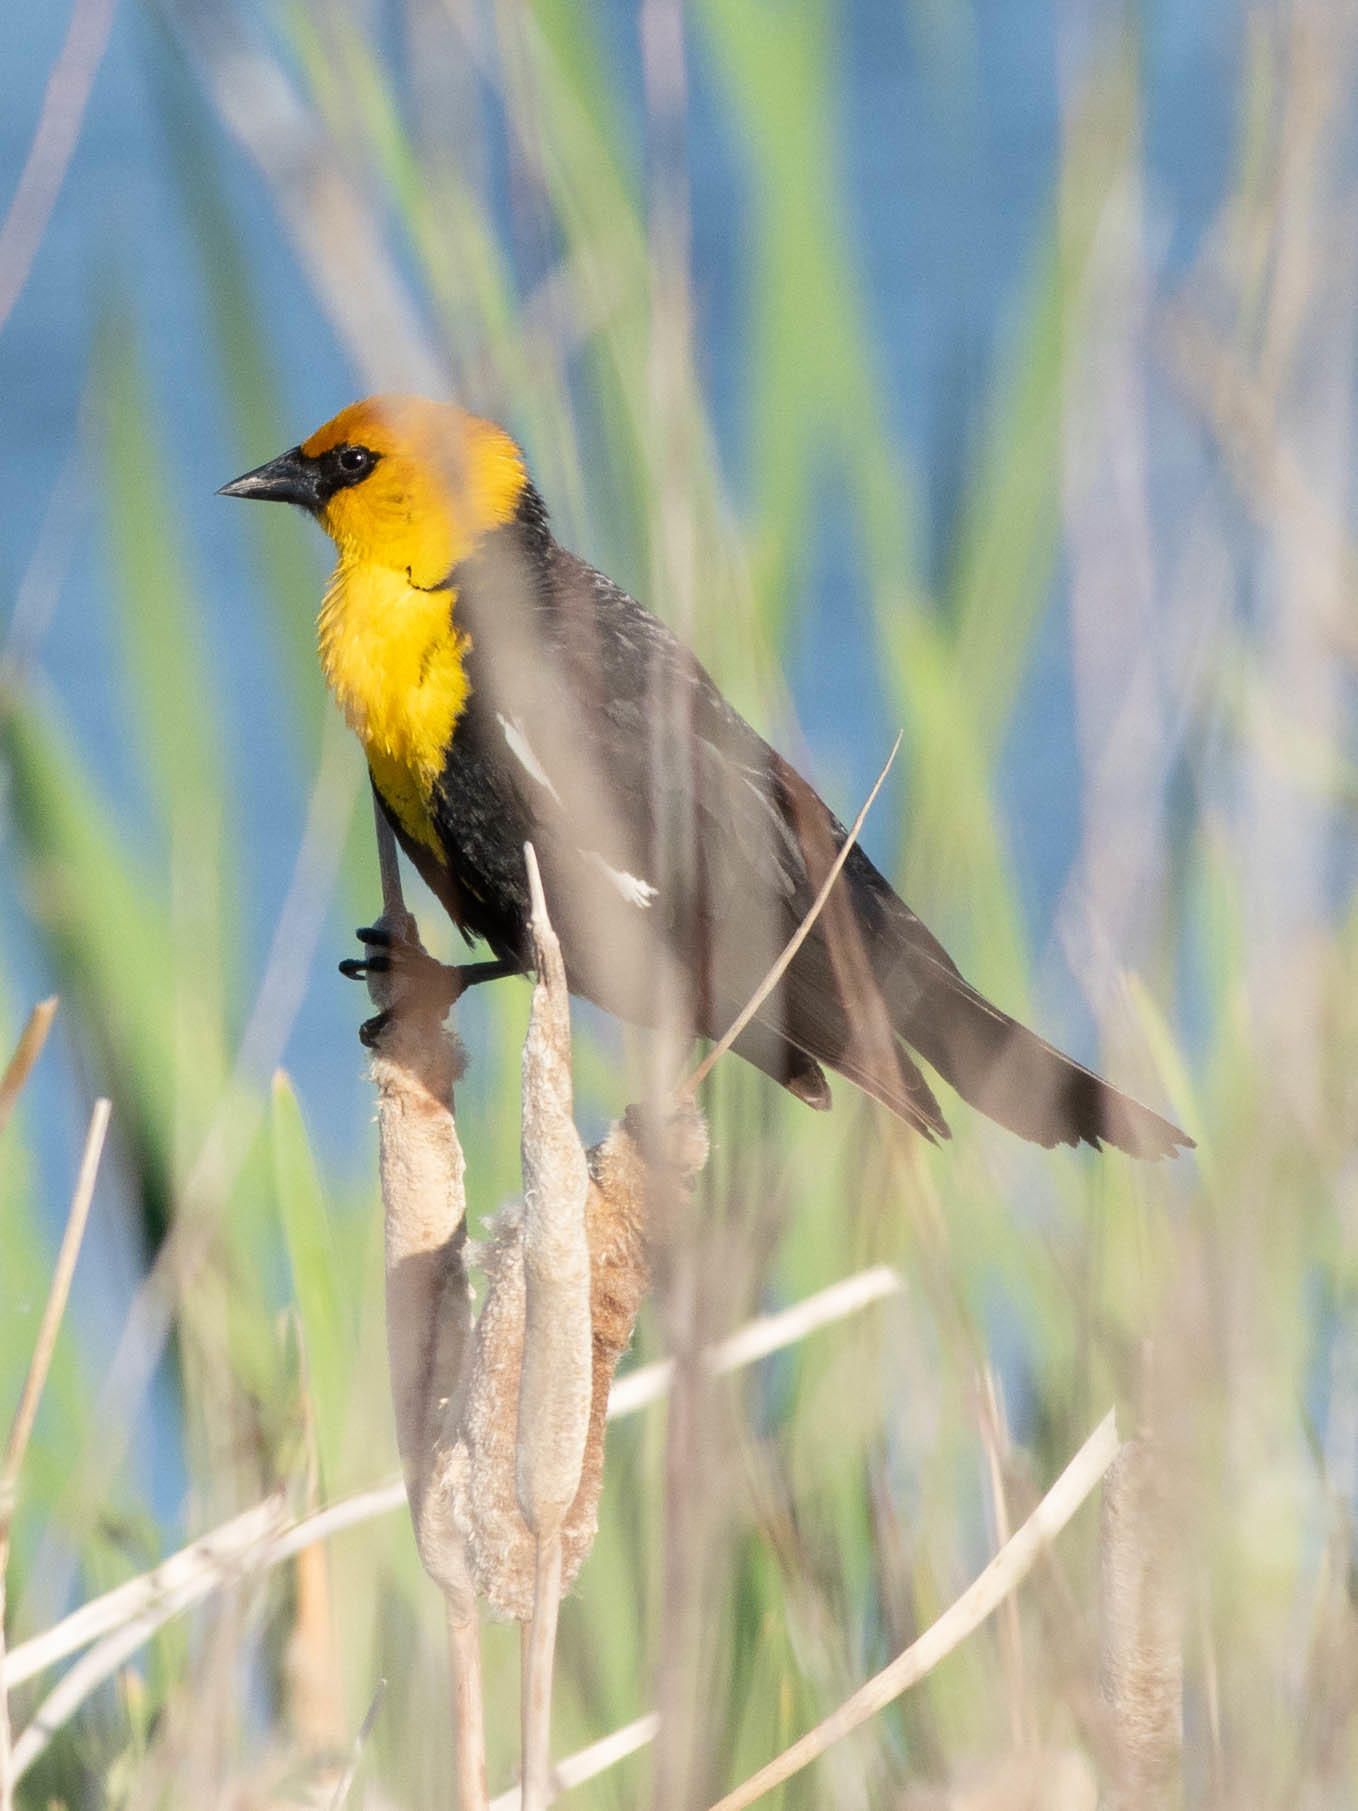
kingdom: Animalia
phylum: Chordata
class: Aves
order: Passeriformes
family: Icteridae
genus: Xanthocephalus
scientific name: Xanthocephalus xanthocephalus
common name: Yellow-headed blackbird
